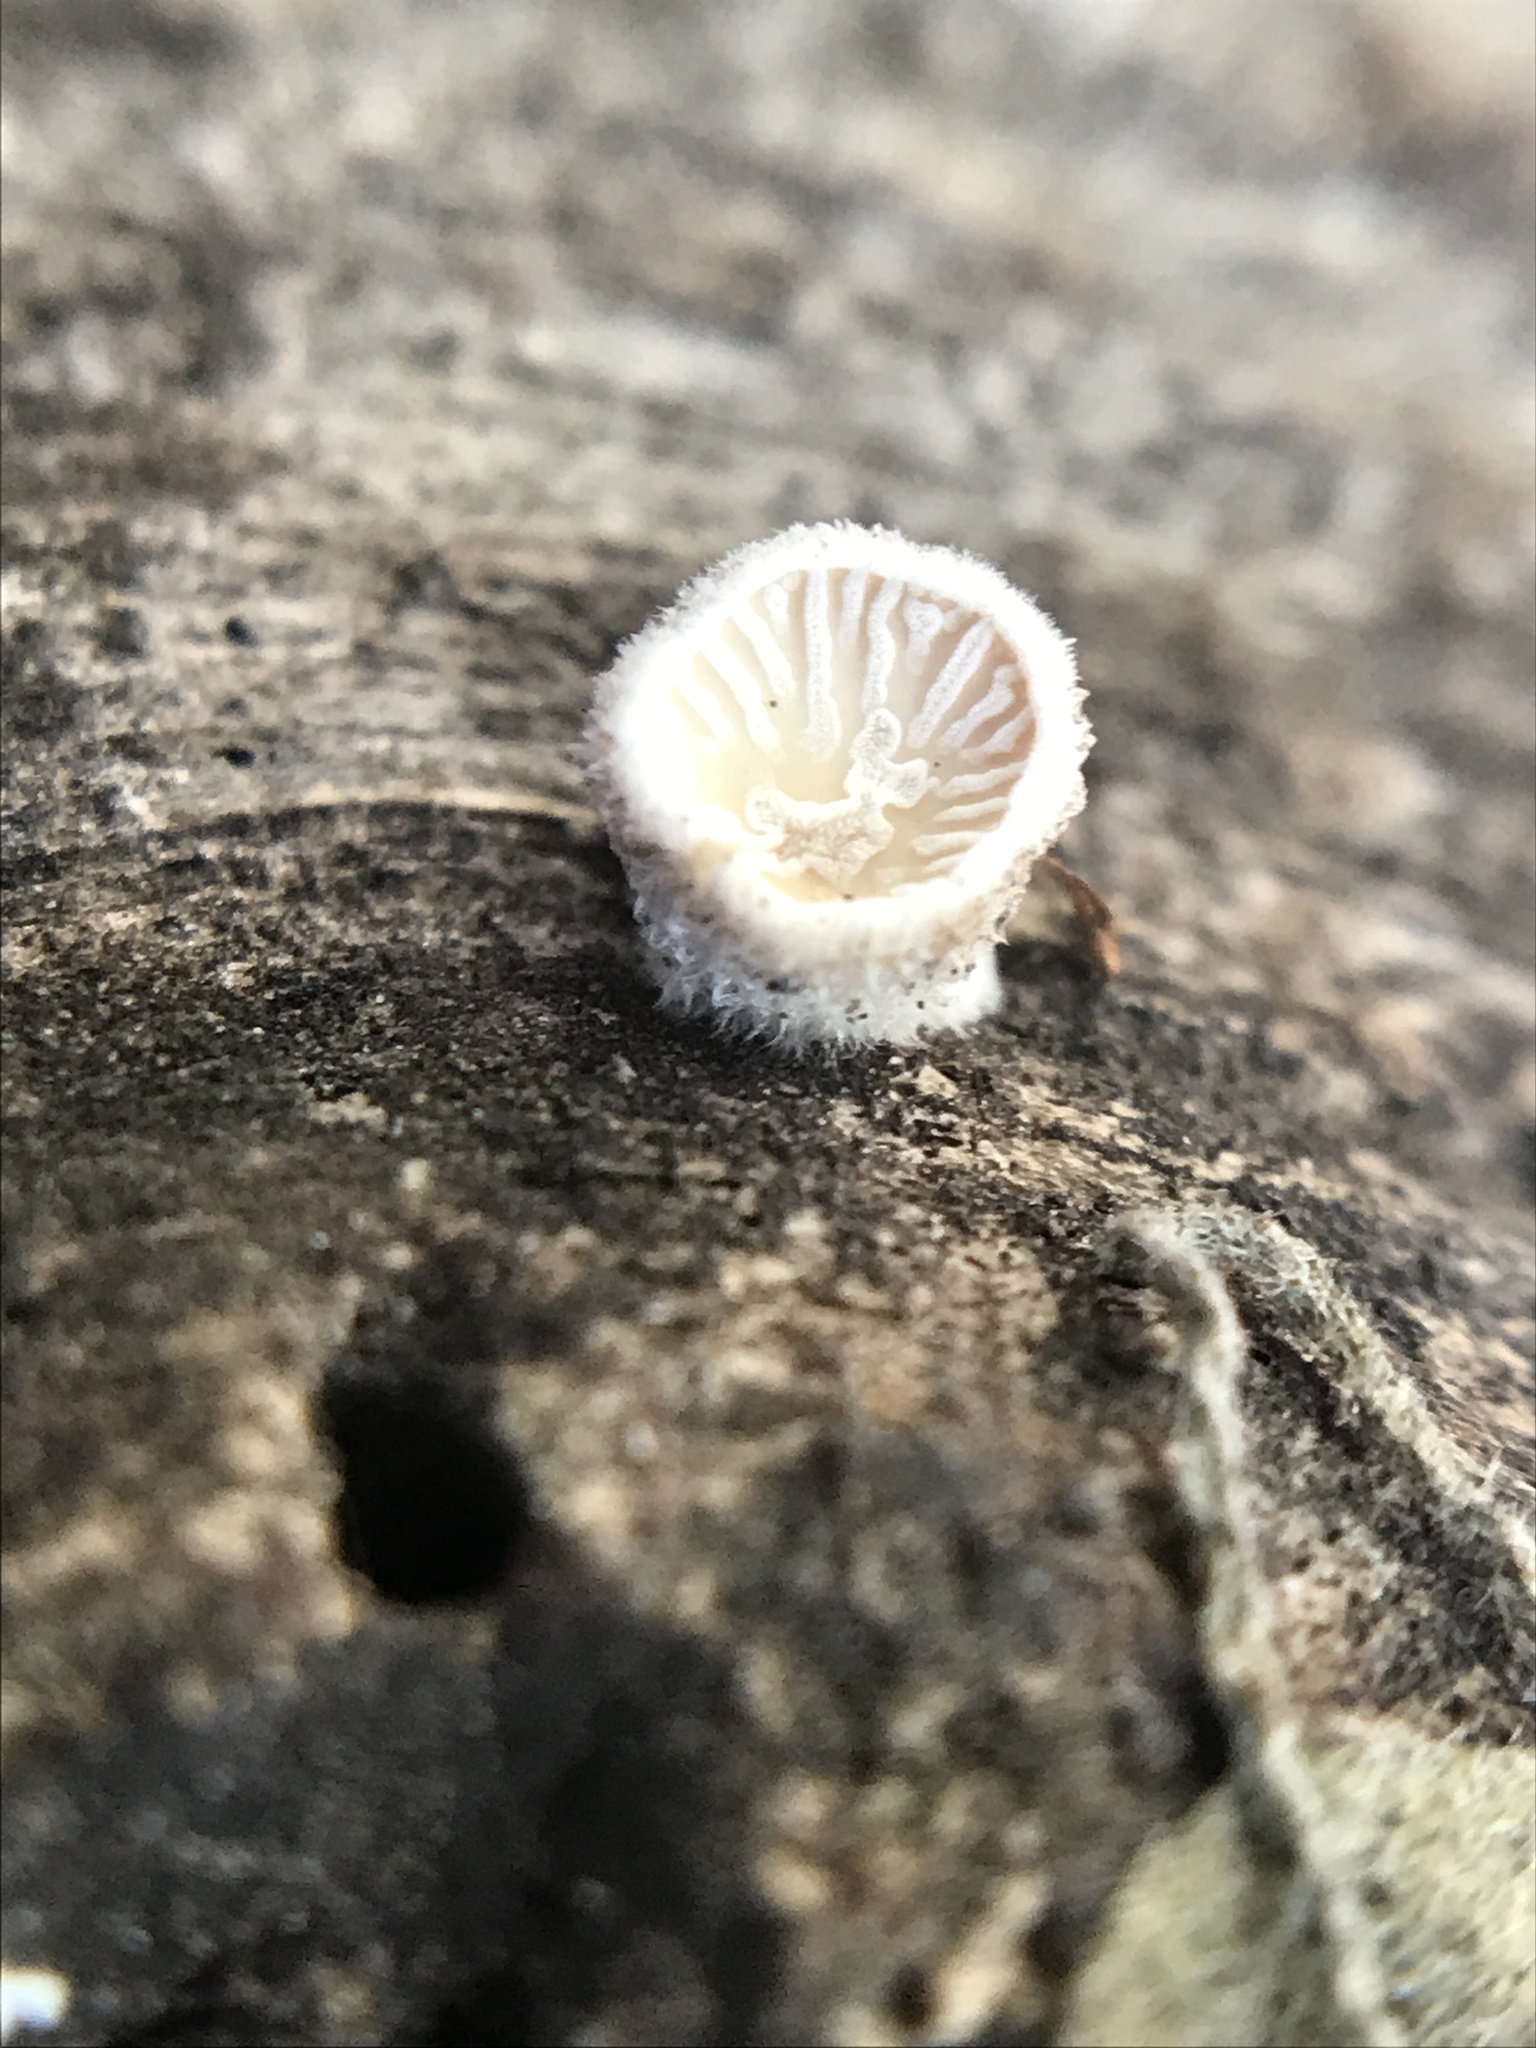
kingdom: Fungi
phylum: Basidiomycota
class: Agaricomycetes
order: Agaricales
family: Schizophyllaceae
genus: Schizophyllum
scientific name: Schizophyllum commune
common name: Common porecrust
